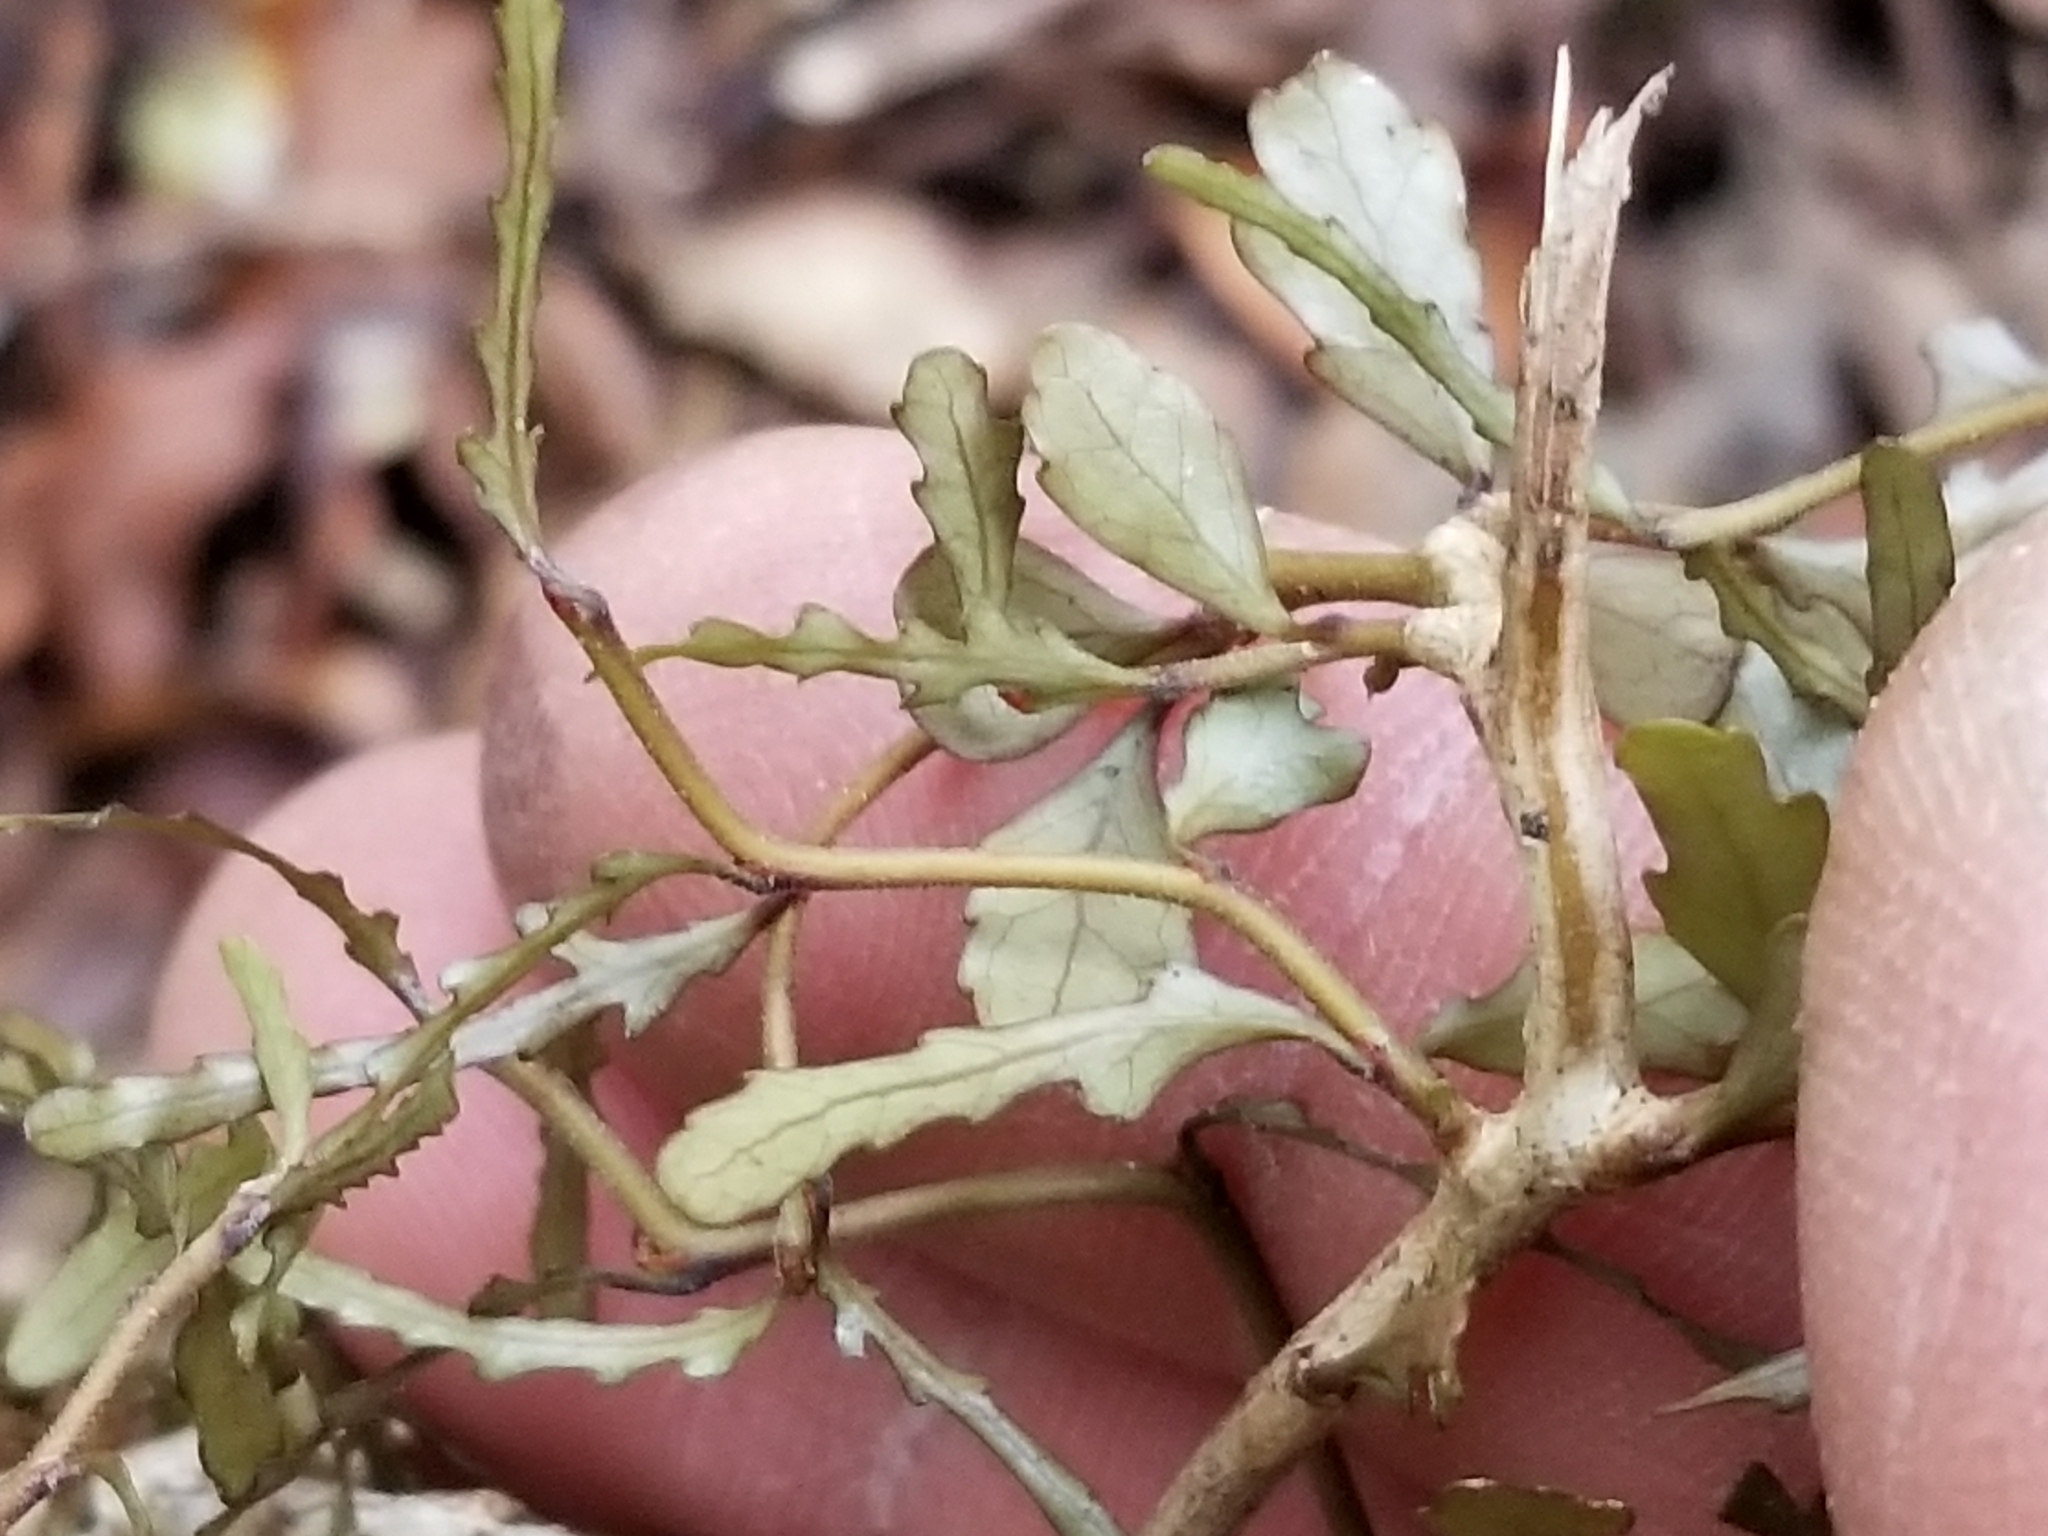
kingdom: Plantae
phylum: Tracheophyta
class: Magnoliopsida
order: Oxalidales
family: Elaeocarpaceae
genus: Elaeocarpus
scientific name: Elaeocarpus hookerianus
